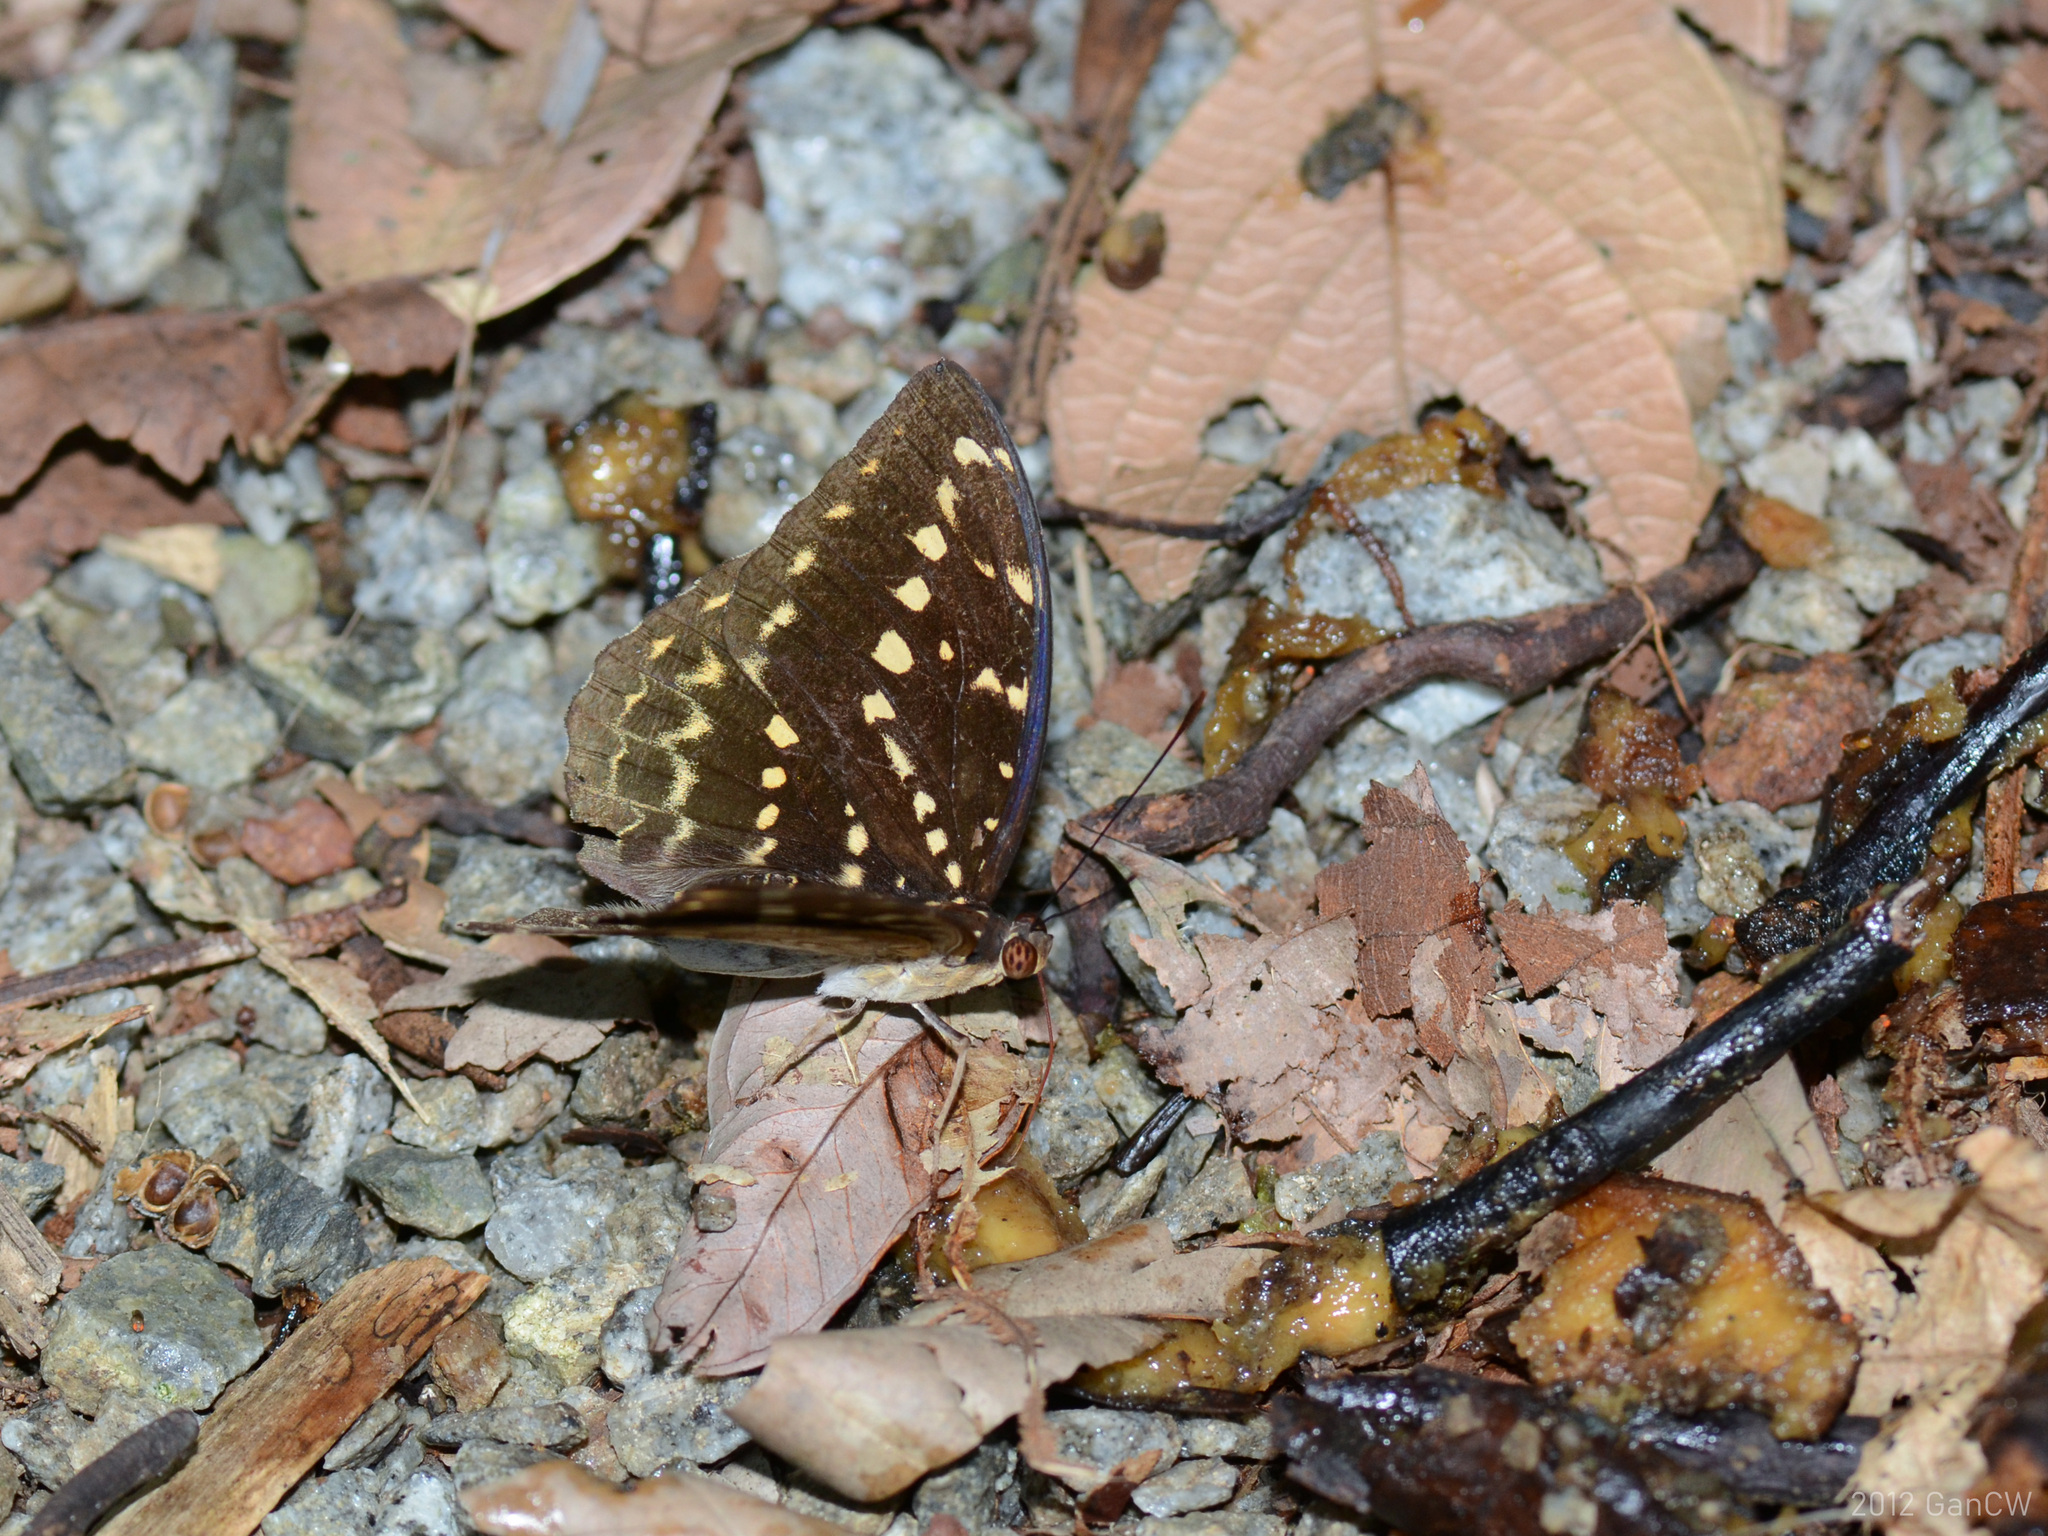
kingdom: Animalia
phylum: Arthropoda
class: Insecta
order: Lepidoptera
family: Nymphalidae
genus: Lexias
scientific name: Lexias canescens
